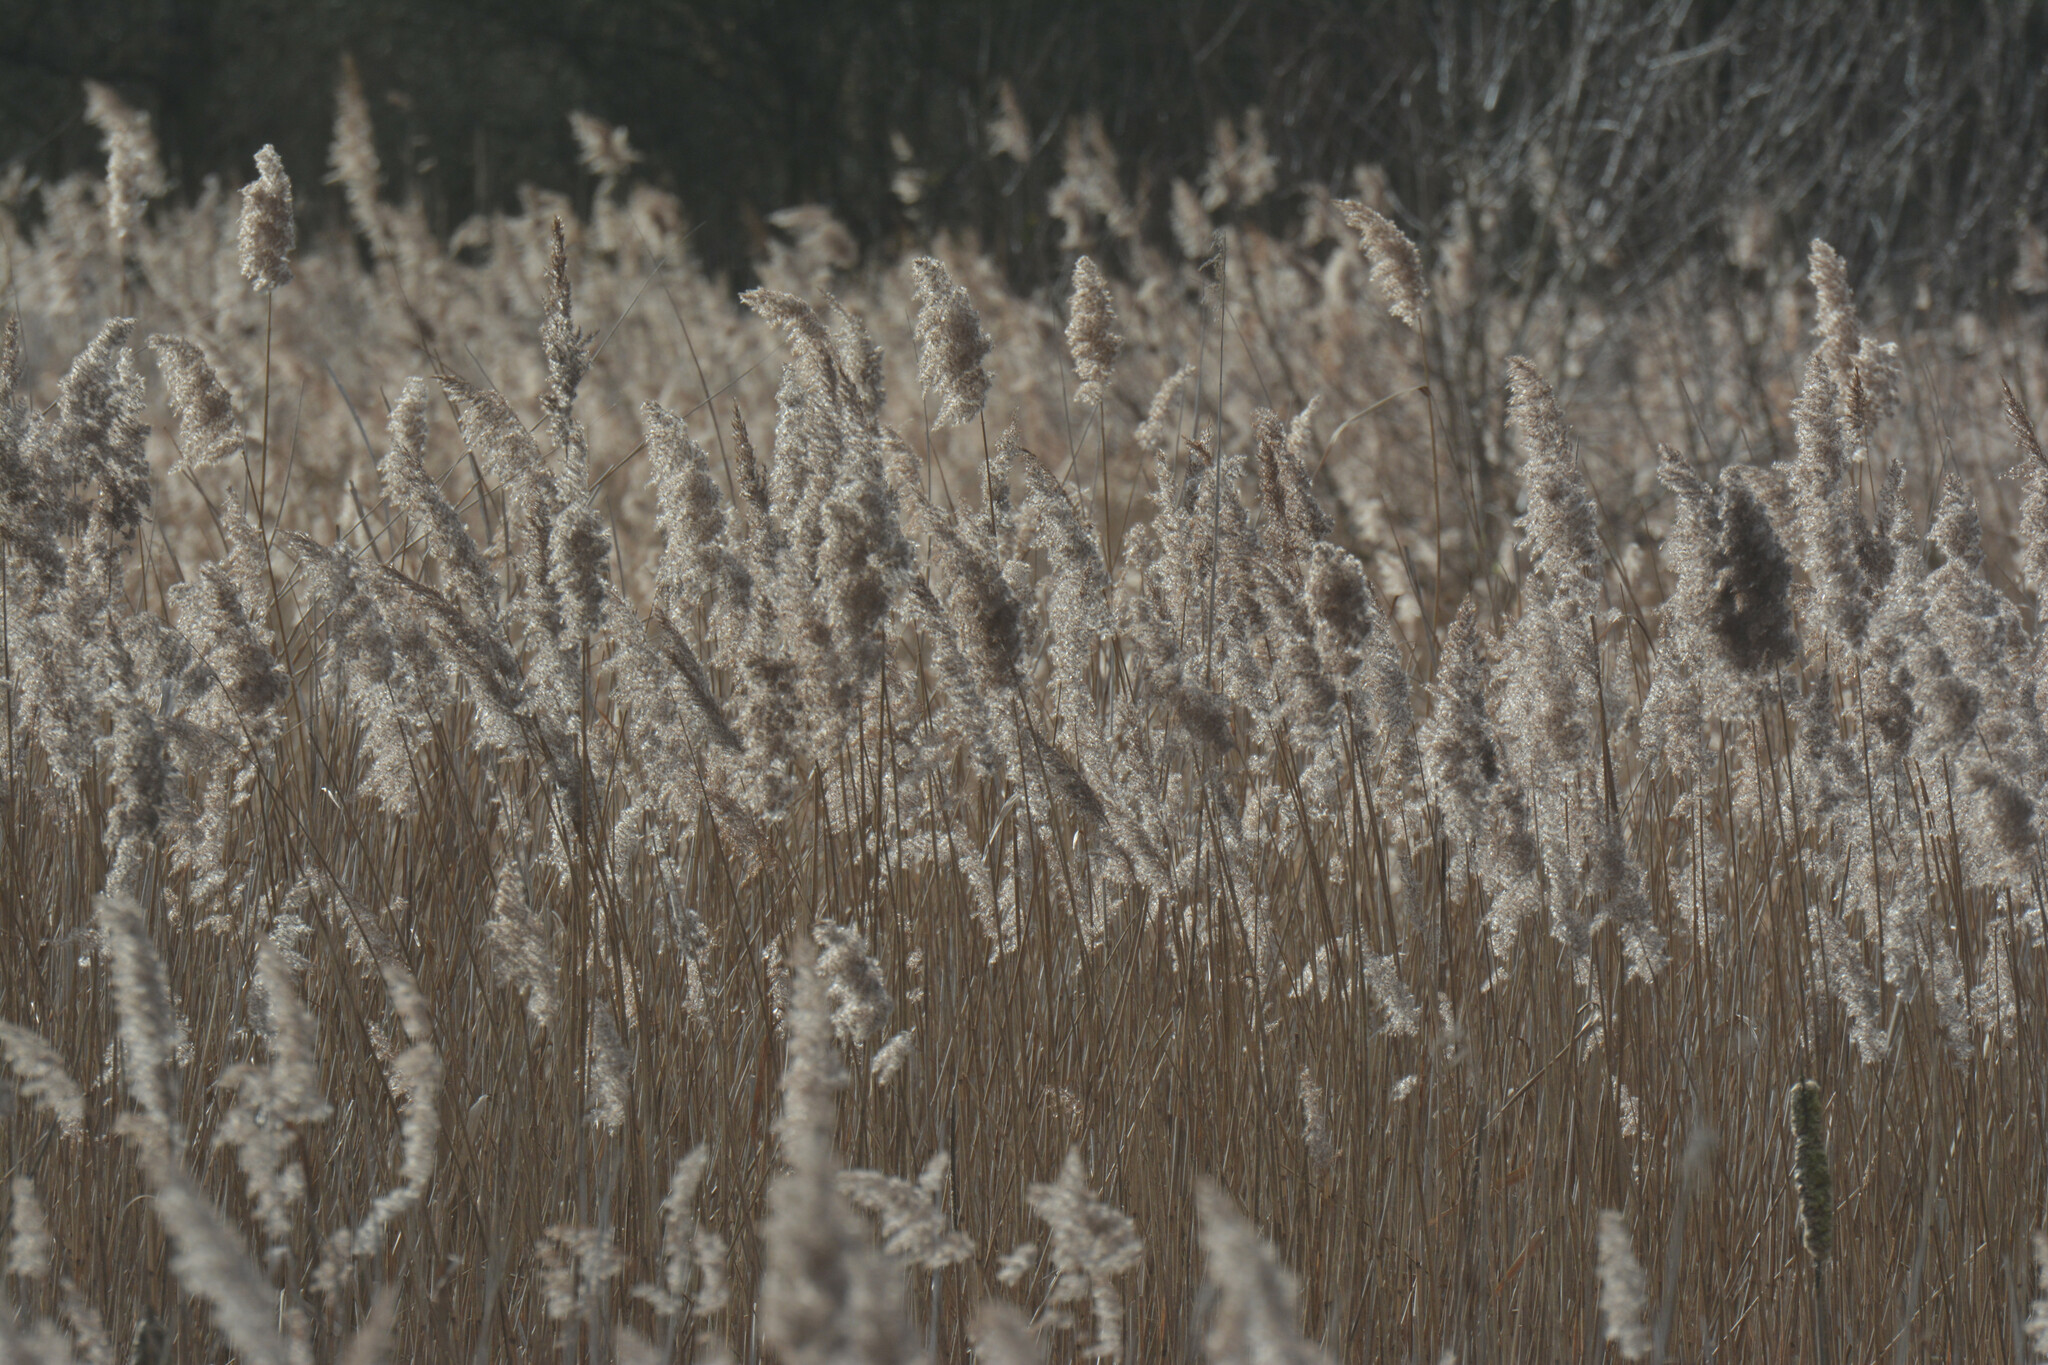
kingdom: Plantae
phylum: Tracheophyta
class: Liliopsida
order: Poales
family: Poaceae
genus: Phragmites
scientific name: Phragmites australis
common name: Common reed
